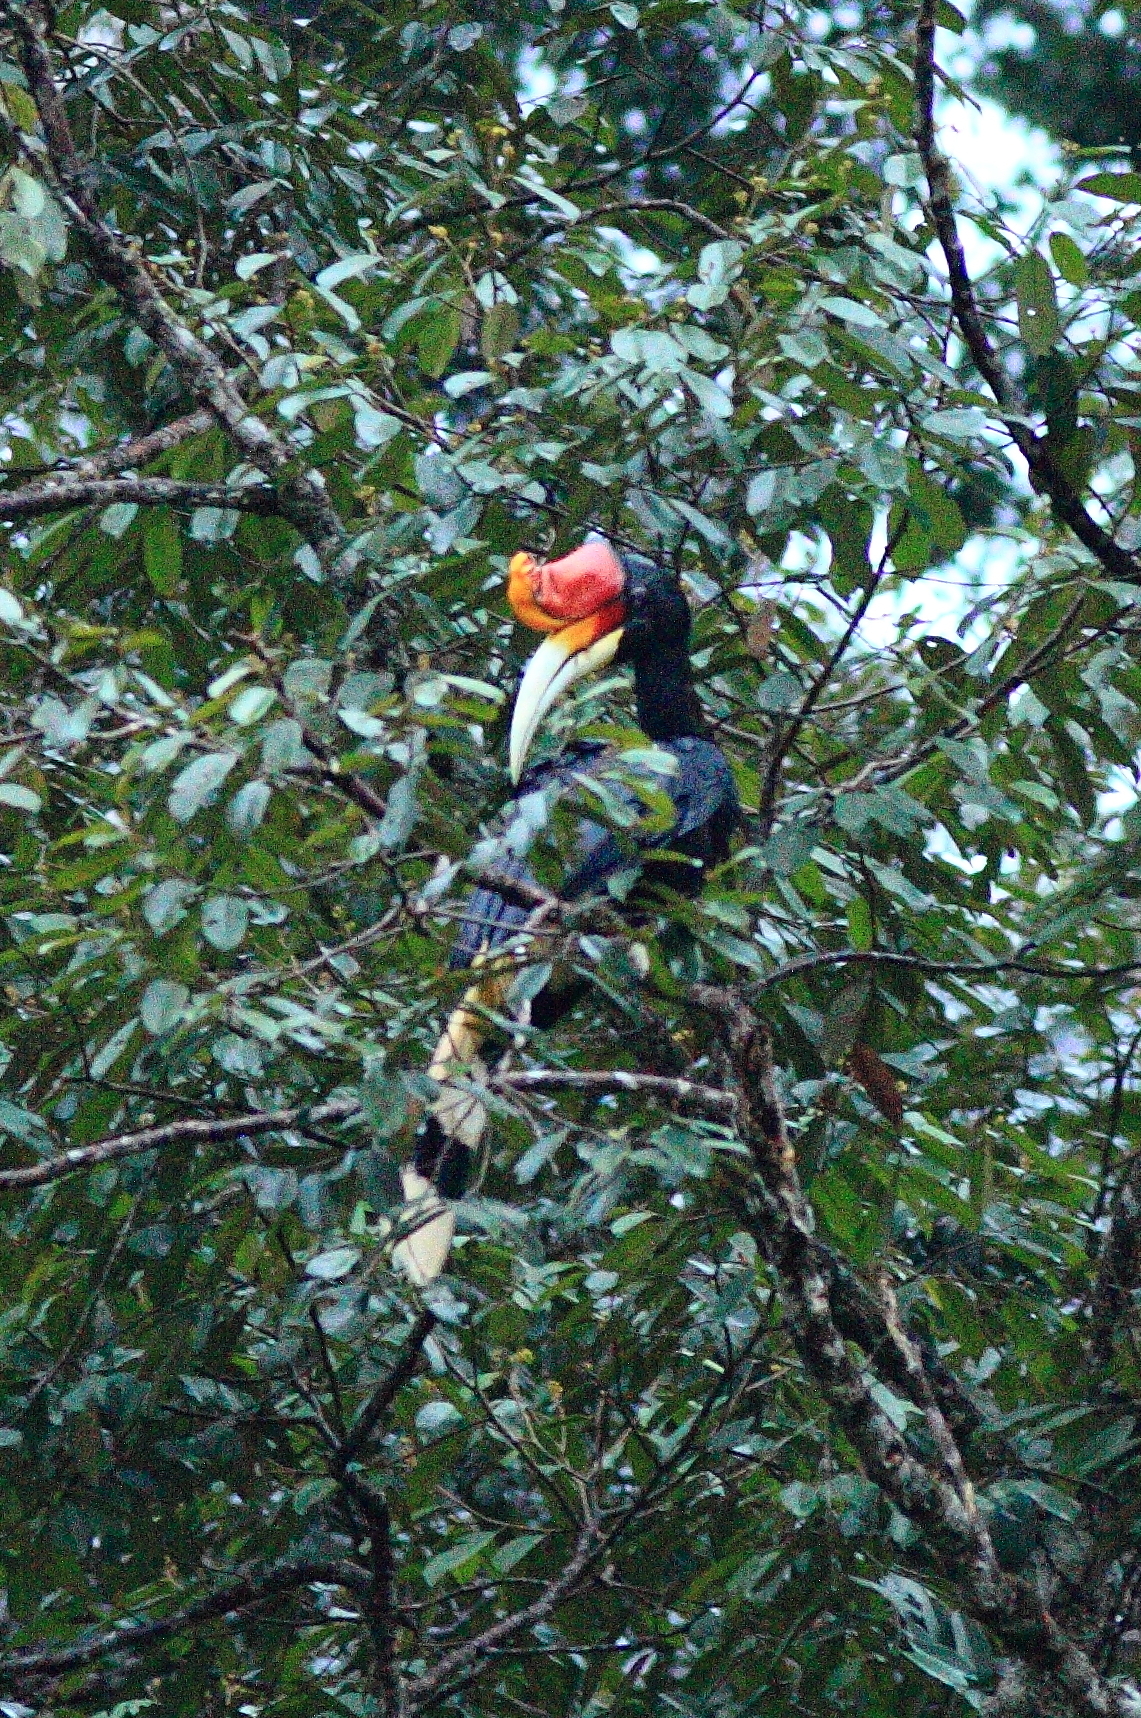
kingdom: Animalia
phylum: Chordata
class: Aves
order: Bucerotiformes
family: Bucerotidae
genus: Buceros
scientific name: Buceros rhinoceros
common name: Rhinoceros hornbill
